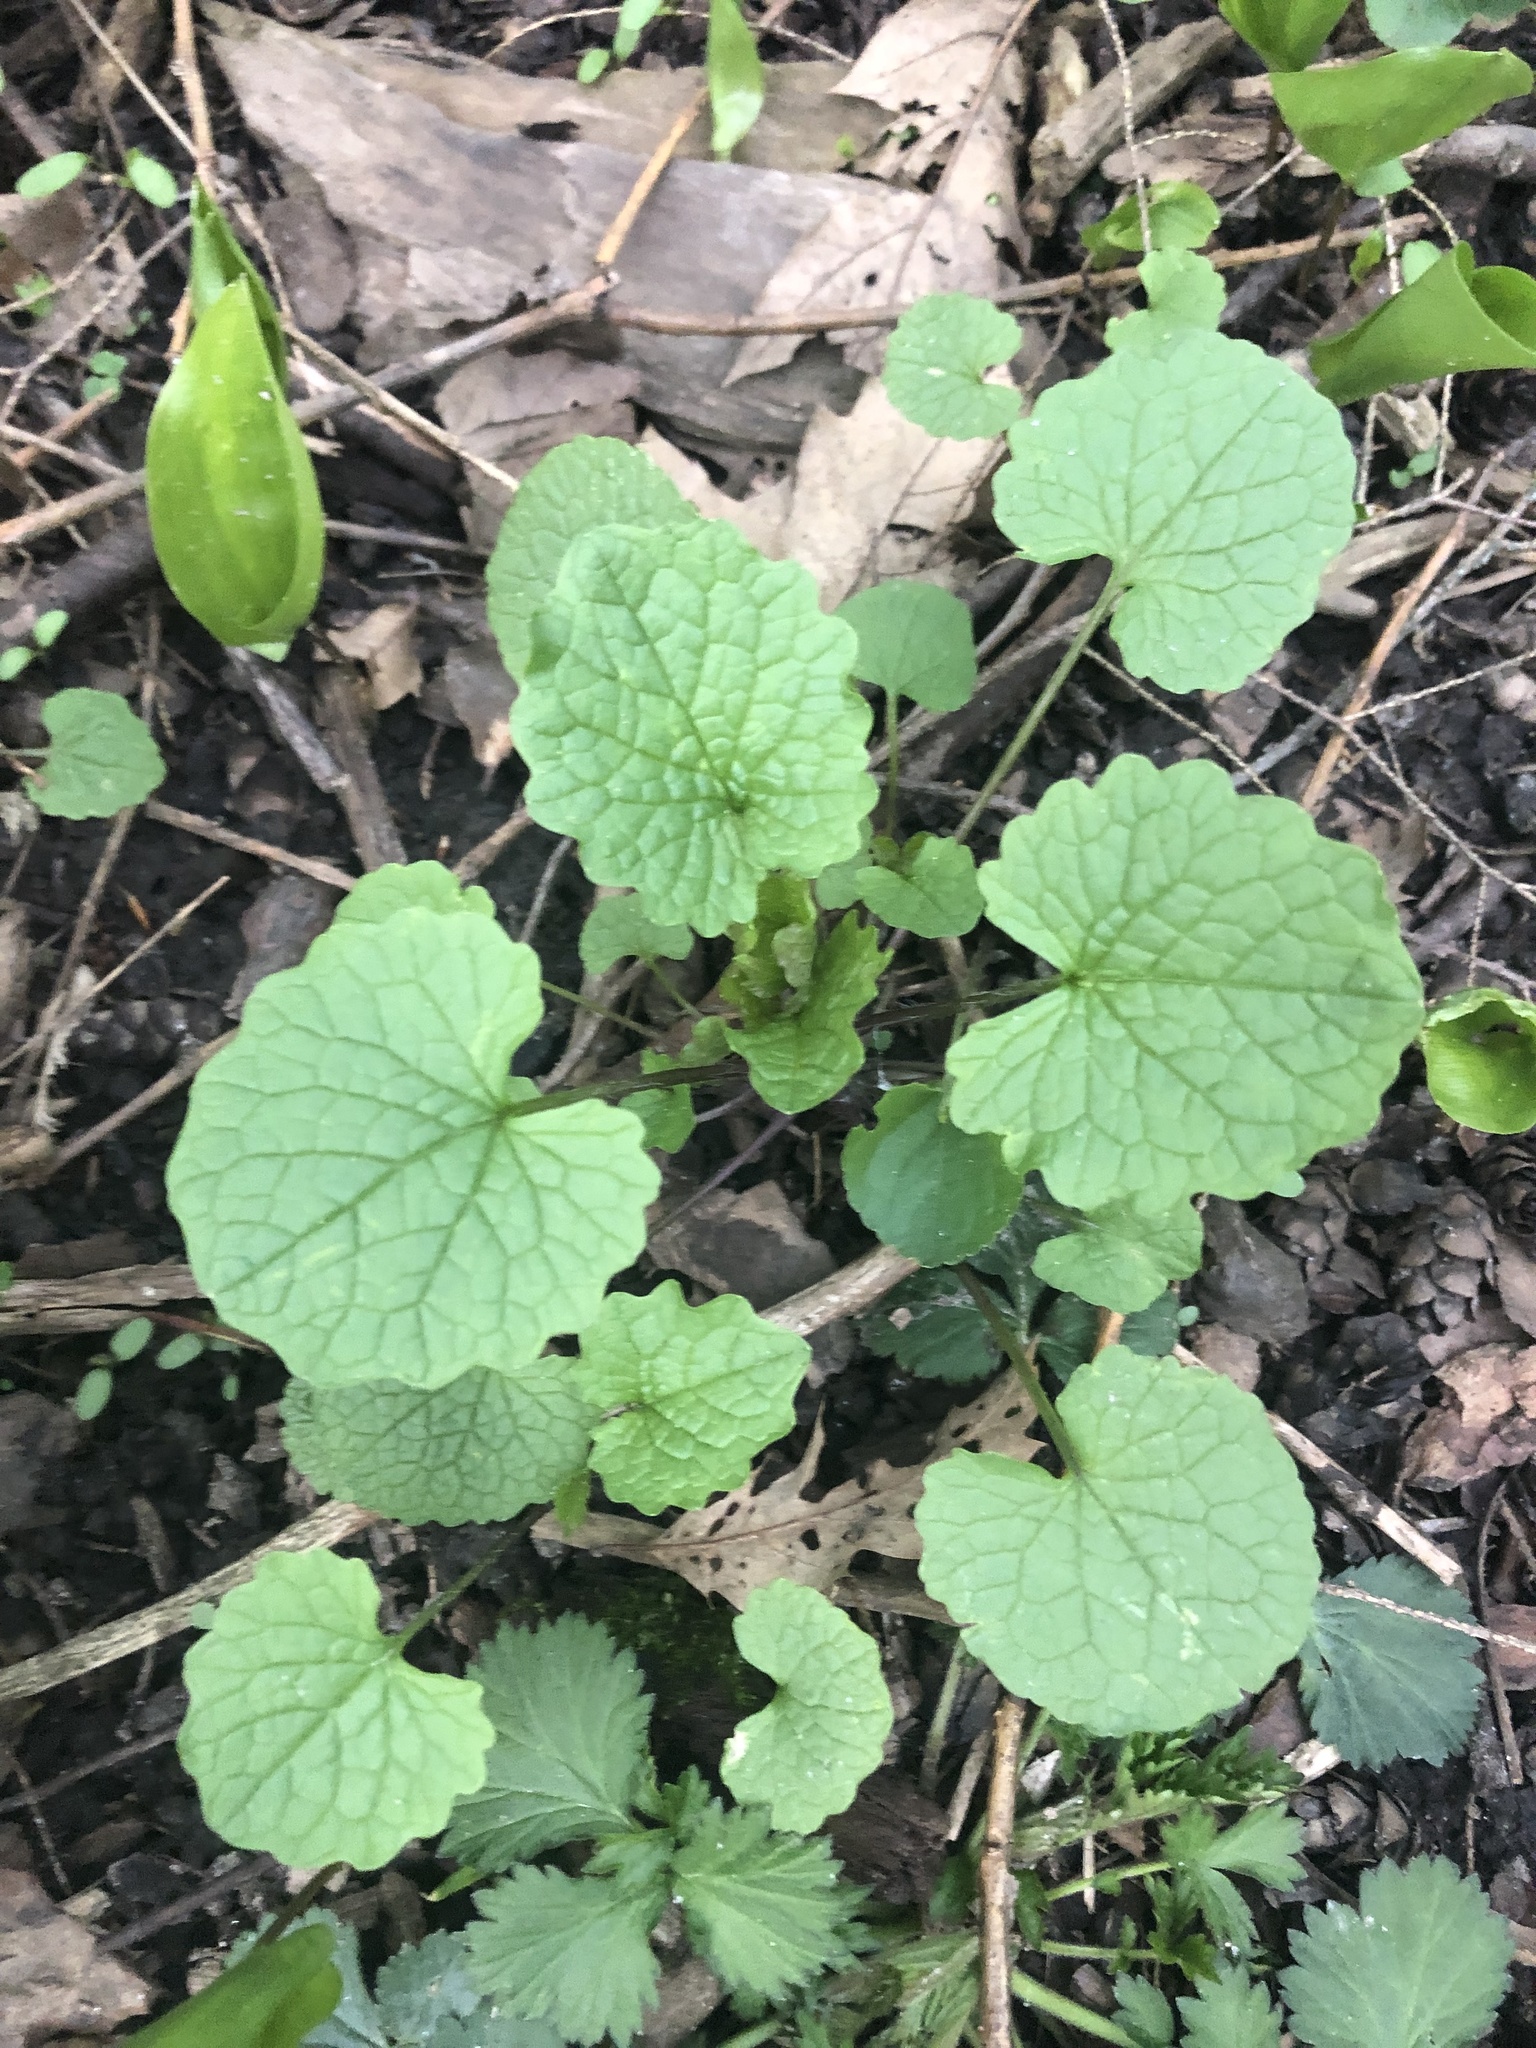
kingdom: Plantae
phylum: Tracheophyta
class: Magnoliopsida
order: Brassicales
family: Brassicaceae
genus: Alliaria
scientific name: Alliaria petiolata
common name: Garlic mustard
